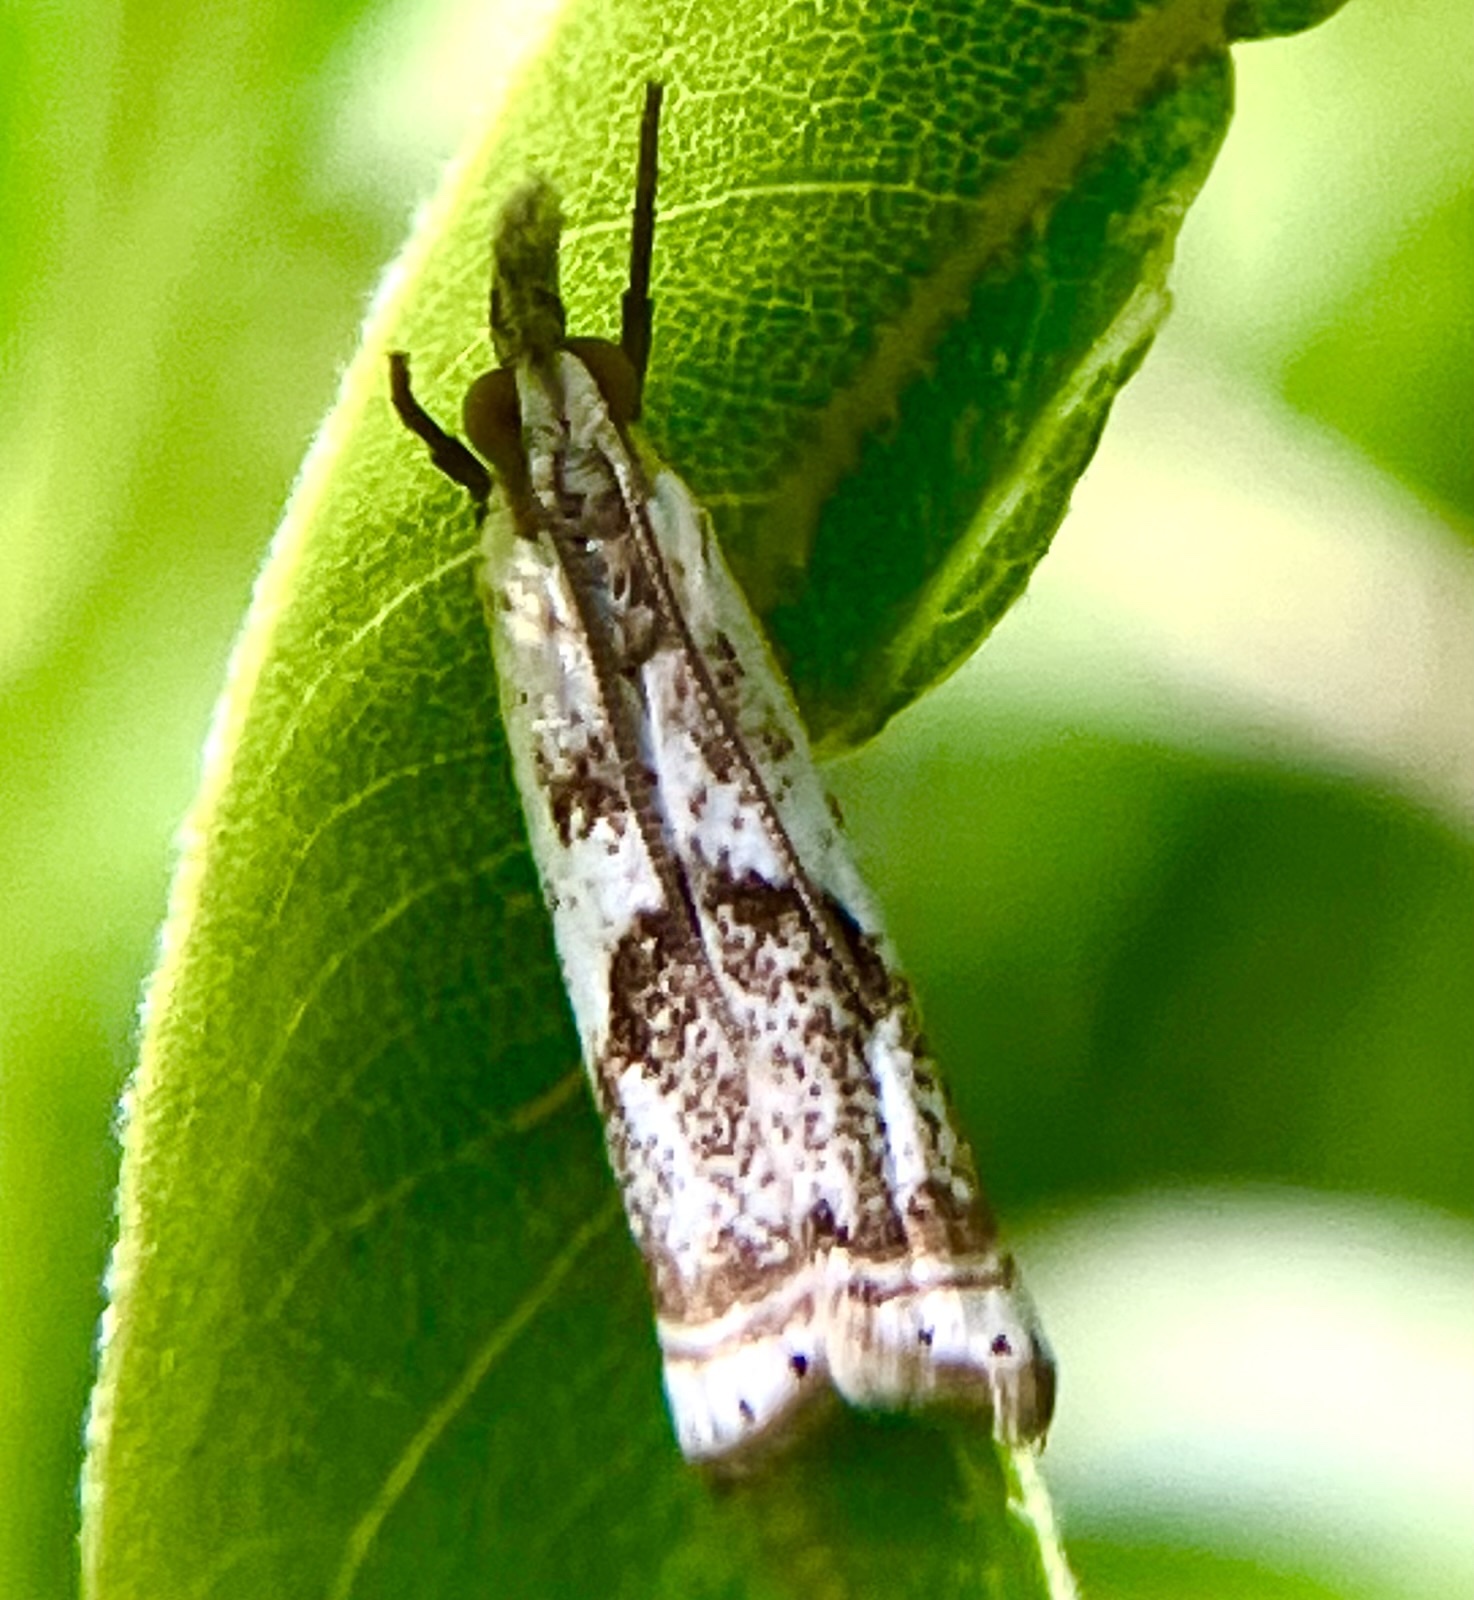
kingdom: Animalia
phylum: Arthropoda
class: Insecta
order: Lepidoptera
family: Crambidae
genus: Microcrambus
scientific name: Microcrambus elegans
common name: Elegant grass-veneer
